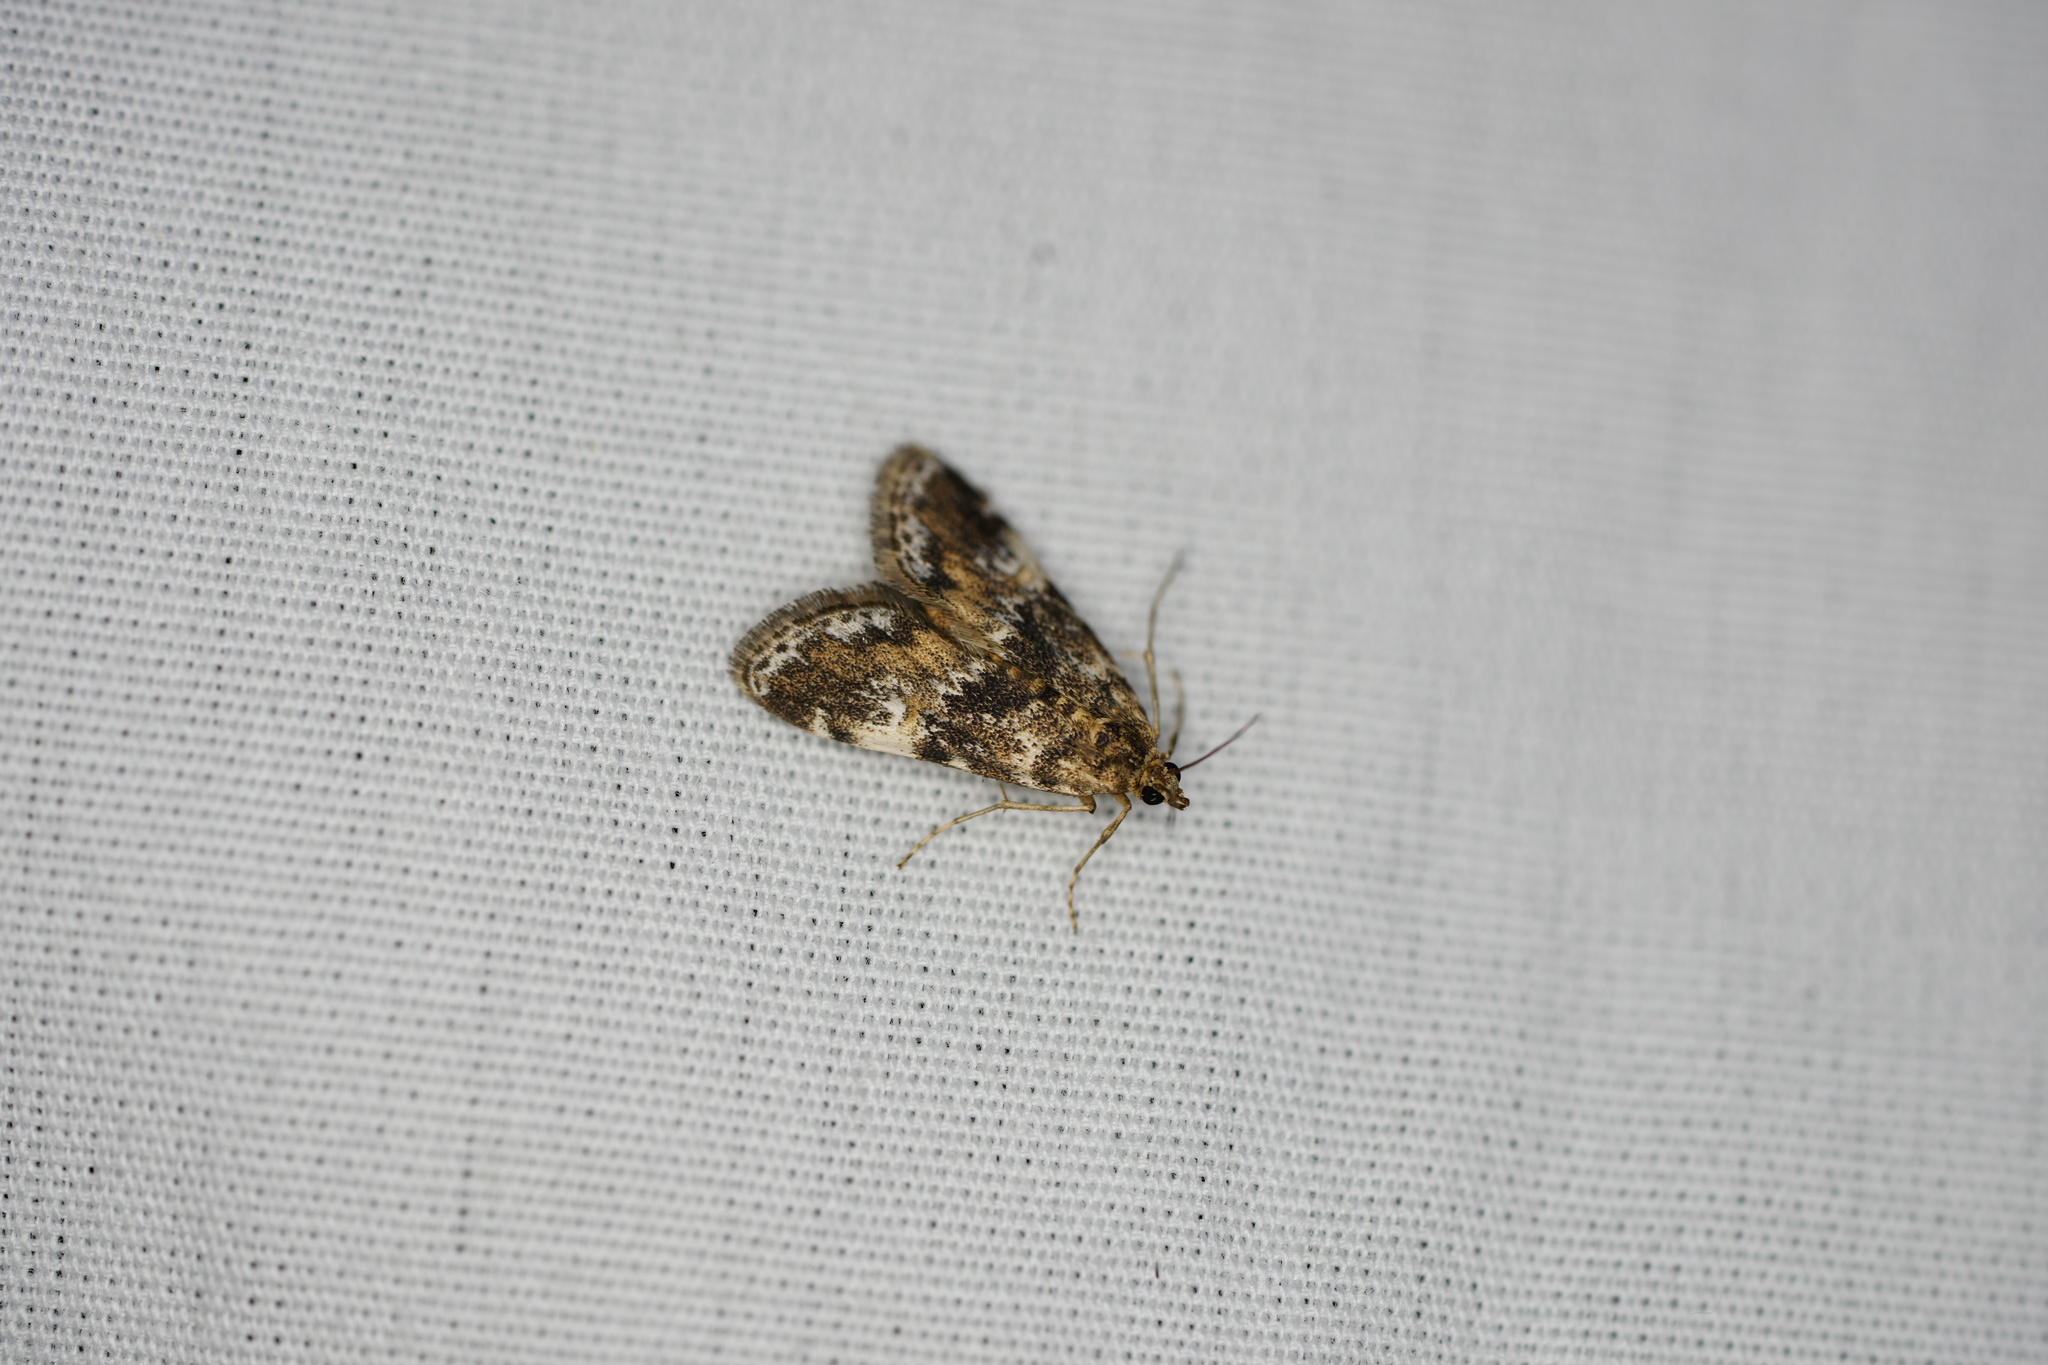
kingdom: Animalia
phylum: Arthropoda
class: Insecta
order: Lepidoptera
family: Crambidae
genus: Elophila
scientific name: Elophila obliteralis
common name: Waterlily leafcutter moth
